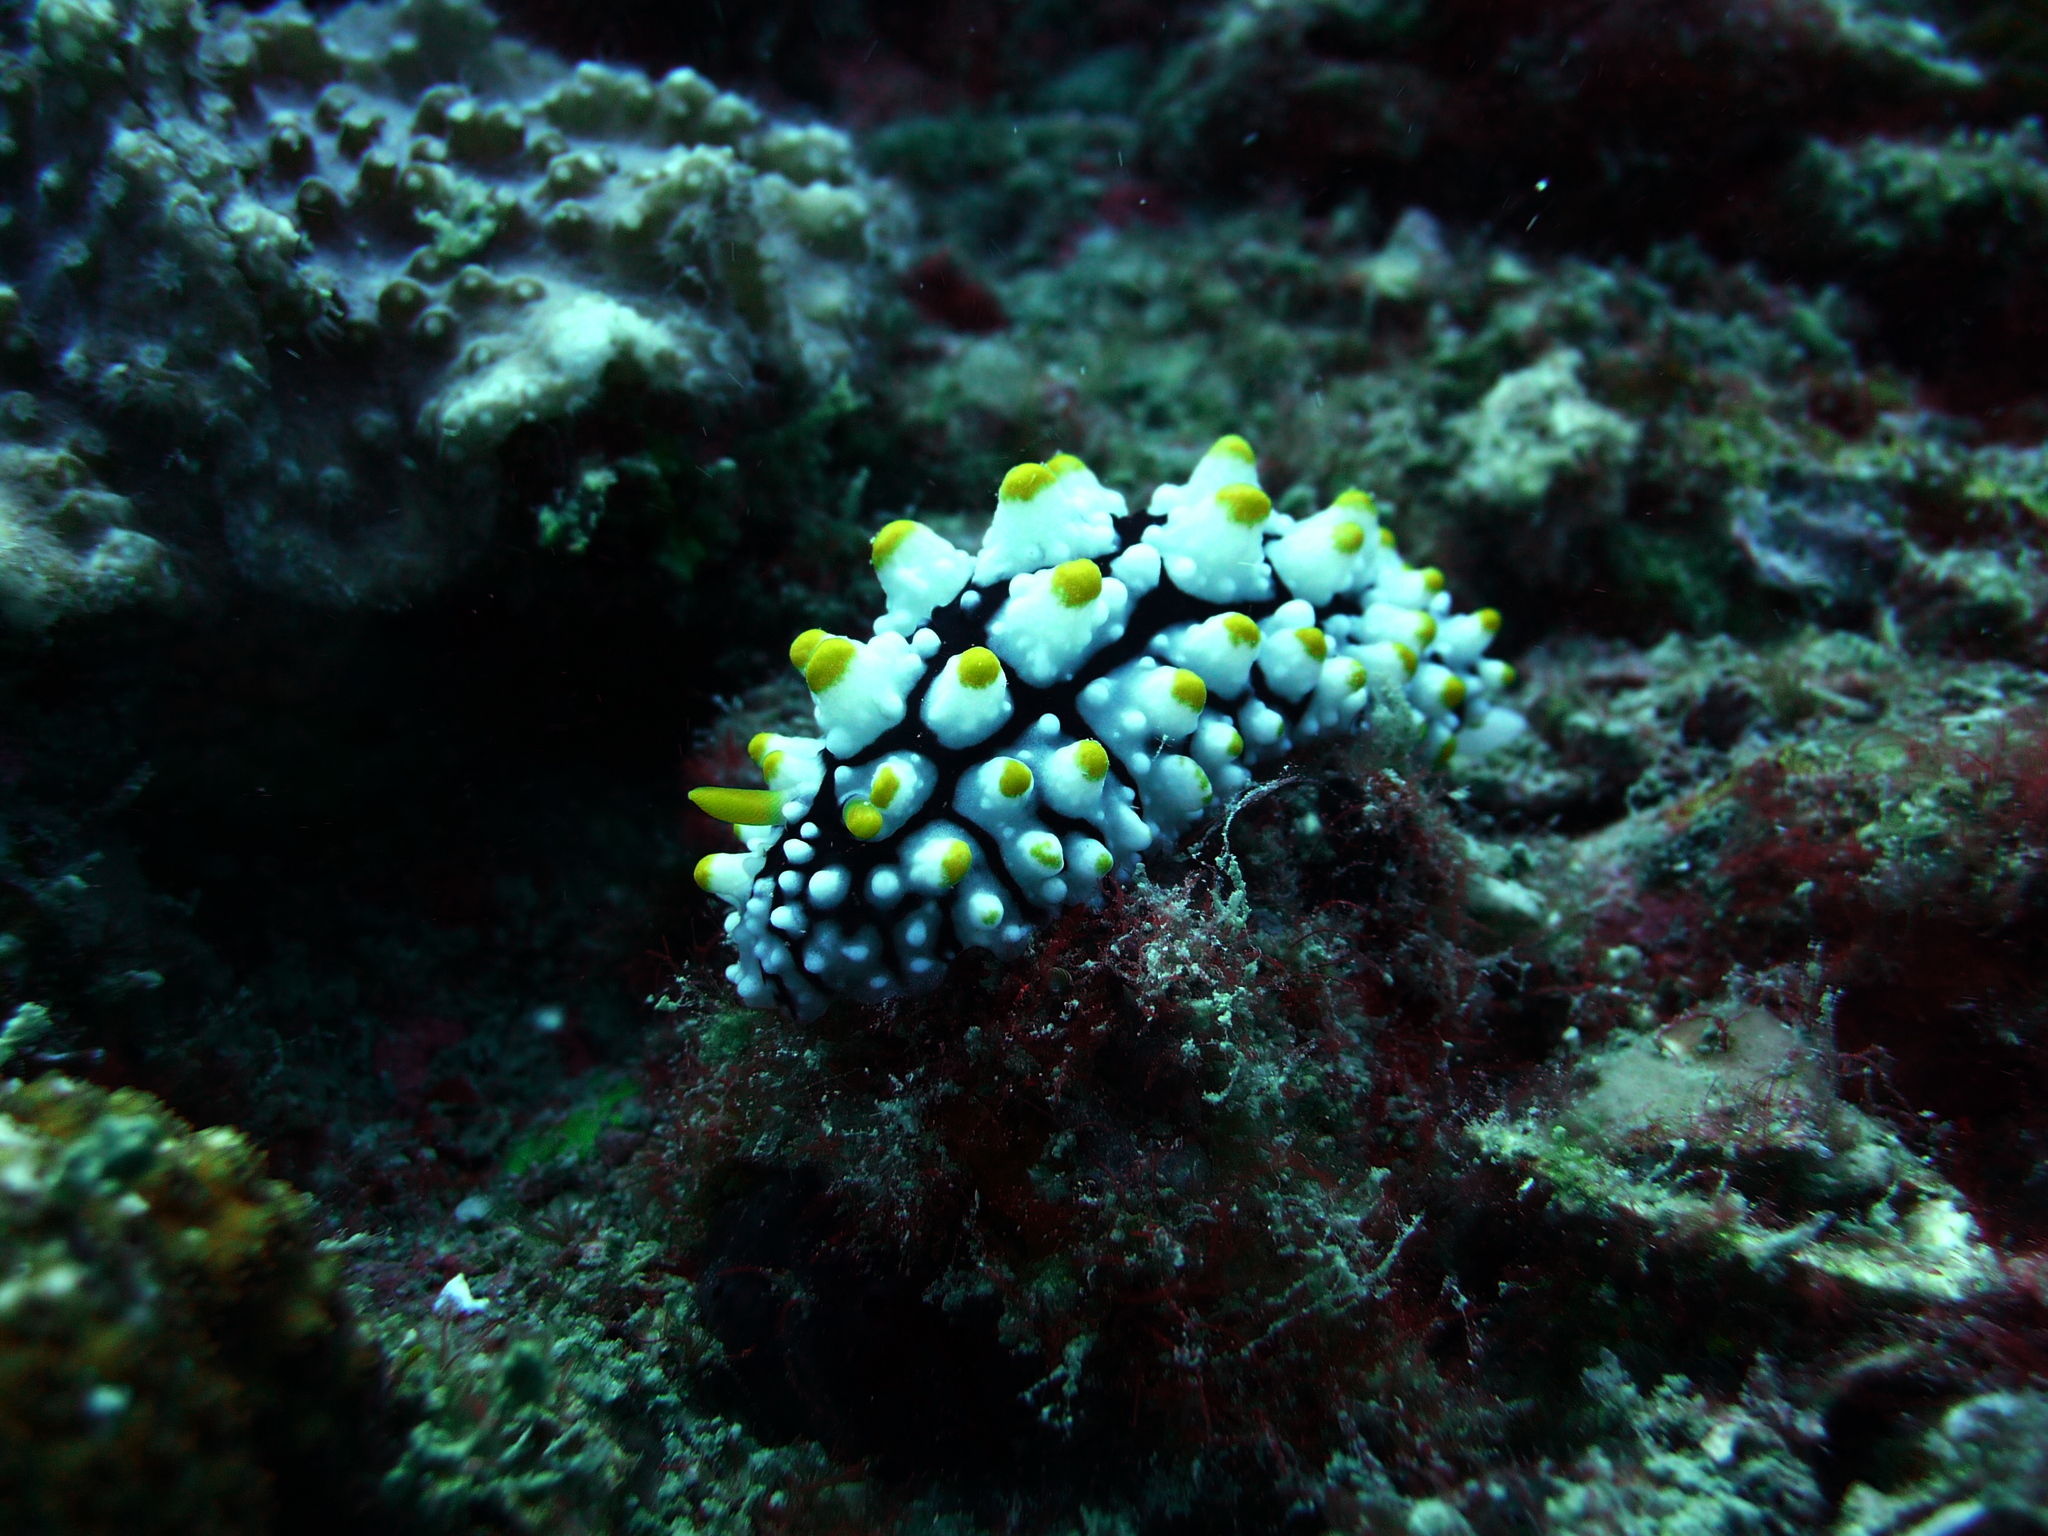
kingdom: Animalia
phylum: Mollusca
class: Gastropoda
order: Nudibranchia
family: Phyllidiidae
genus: Phyllidia
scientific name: Phyllidia elegans
